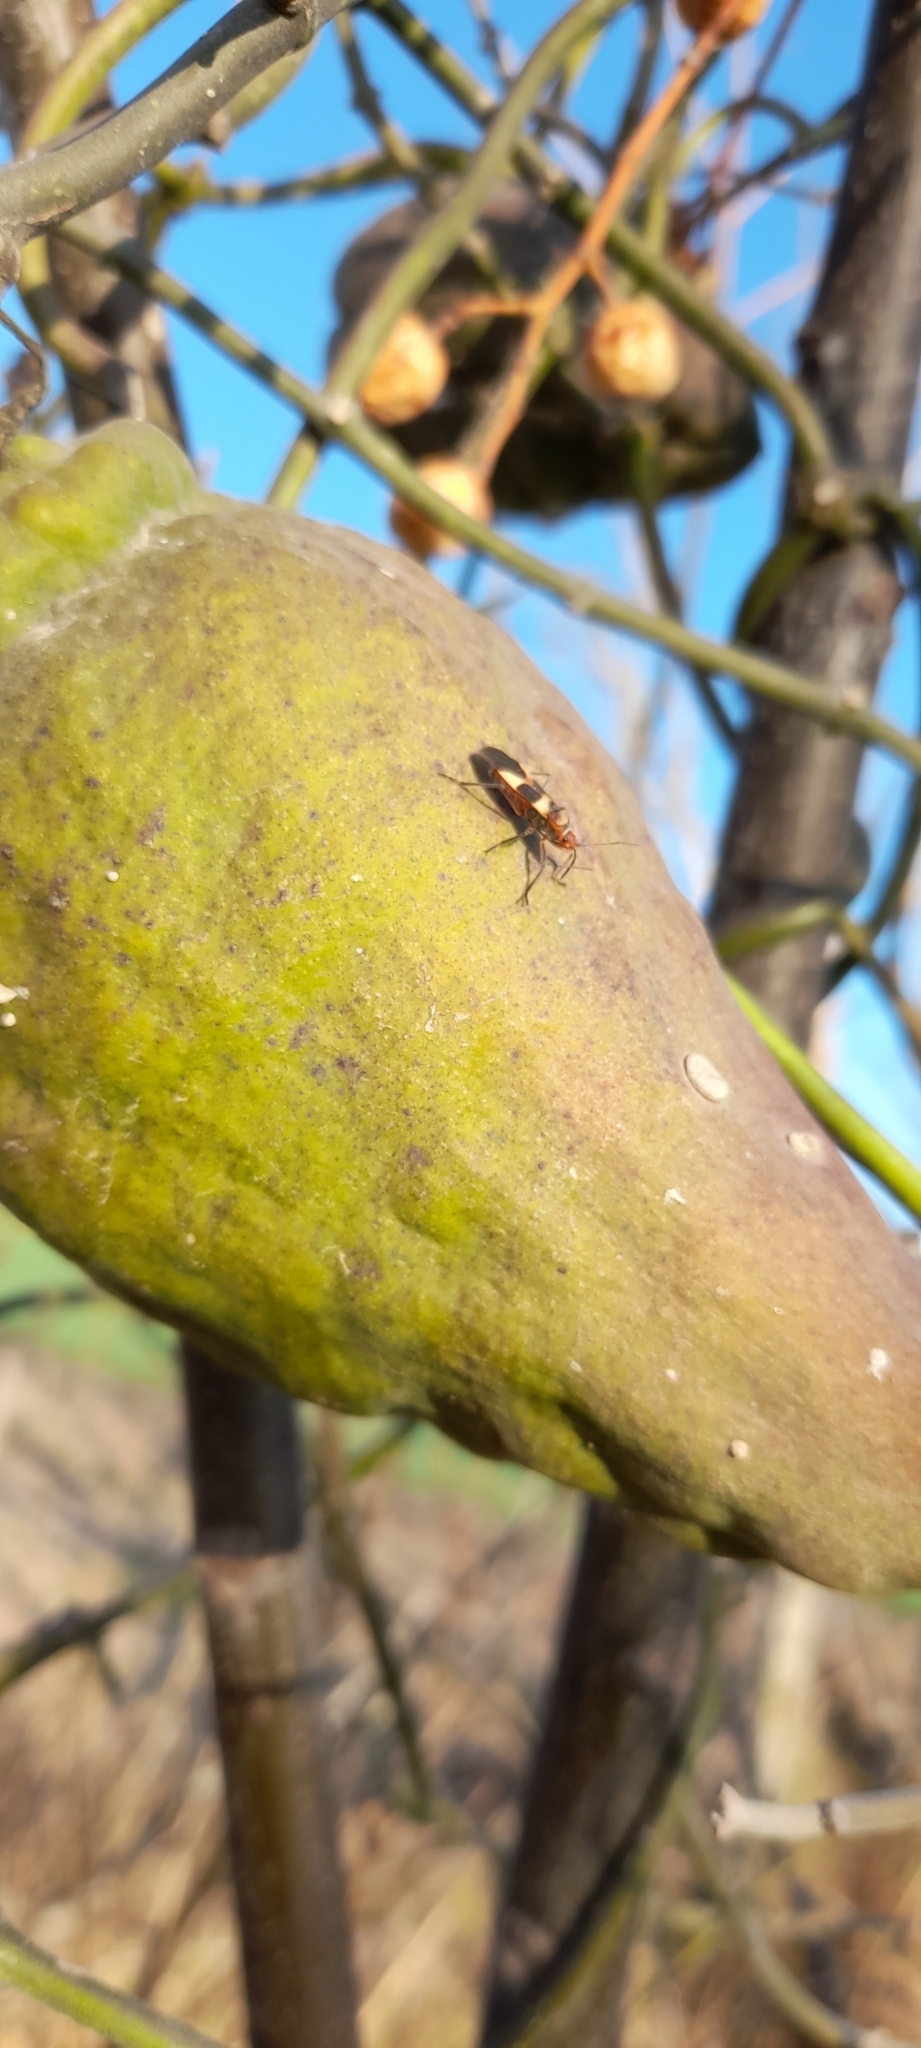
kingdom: Animalia
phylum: Arthropoda
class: Insecta
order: Hemiptera
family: Lygaeidae
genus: Oncopeltus
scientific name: Oncopeltus unifasciatellus
